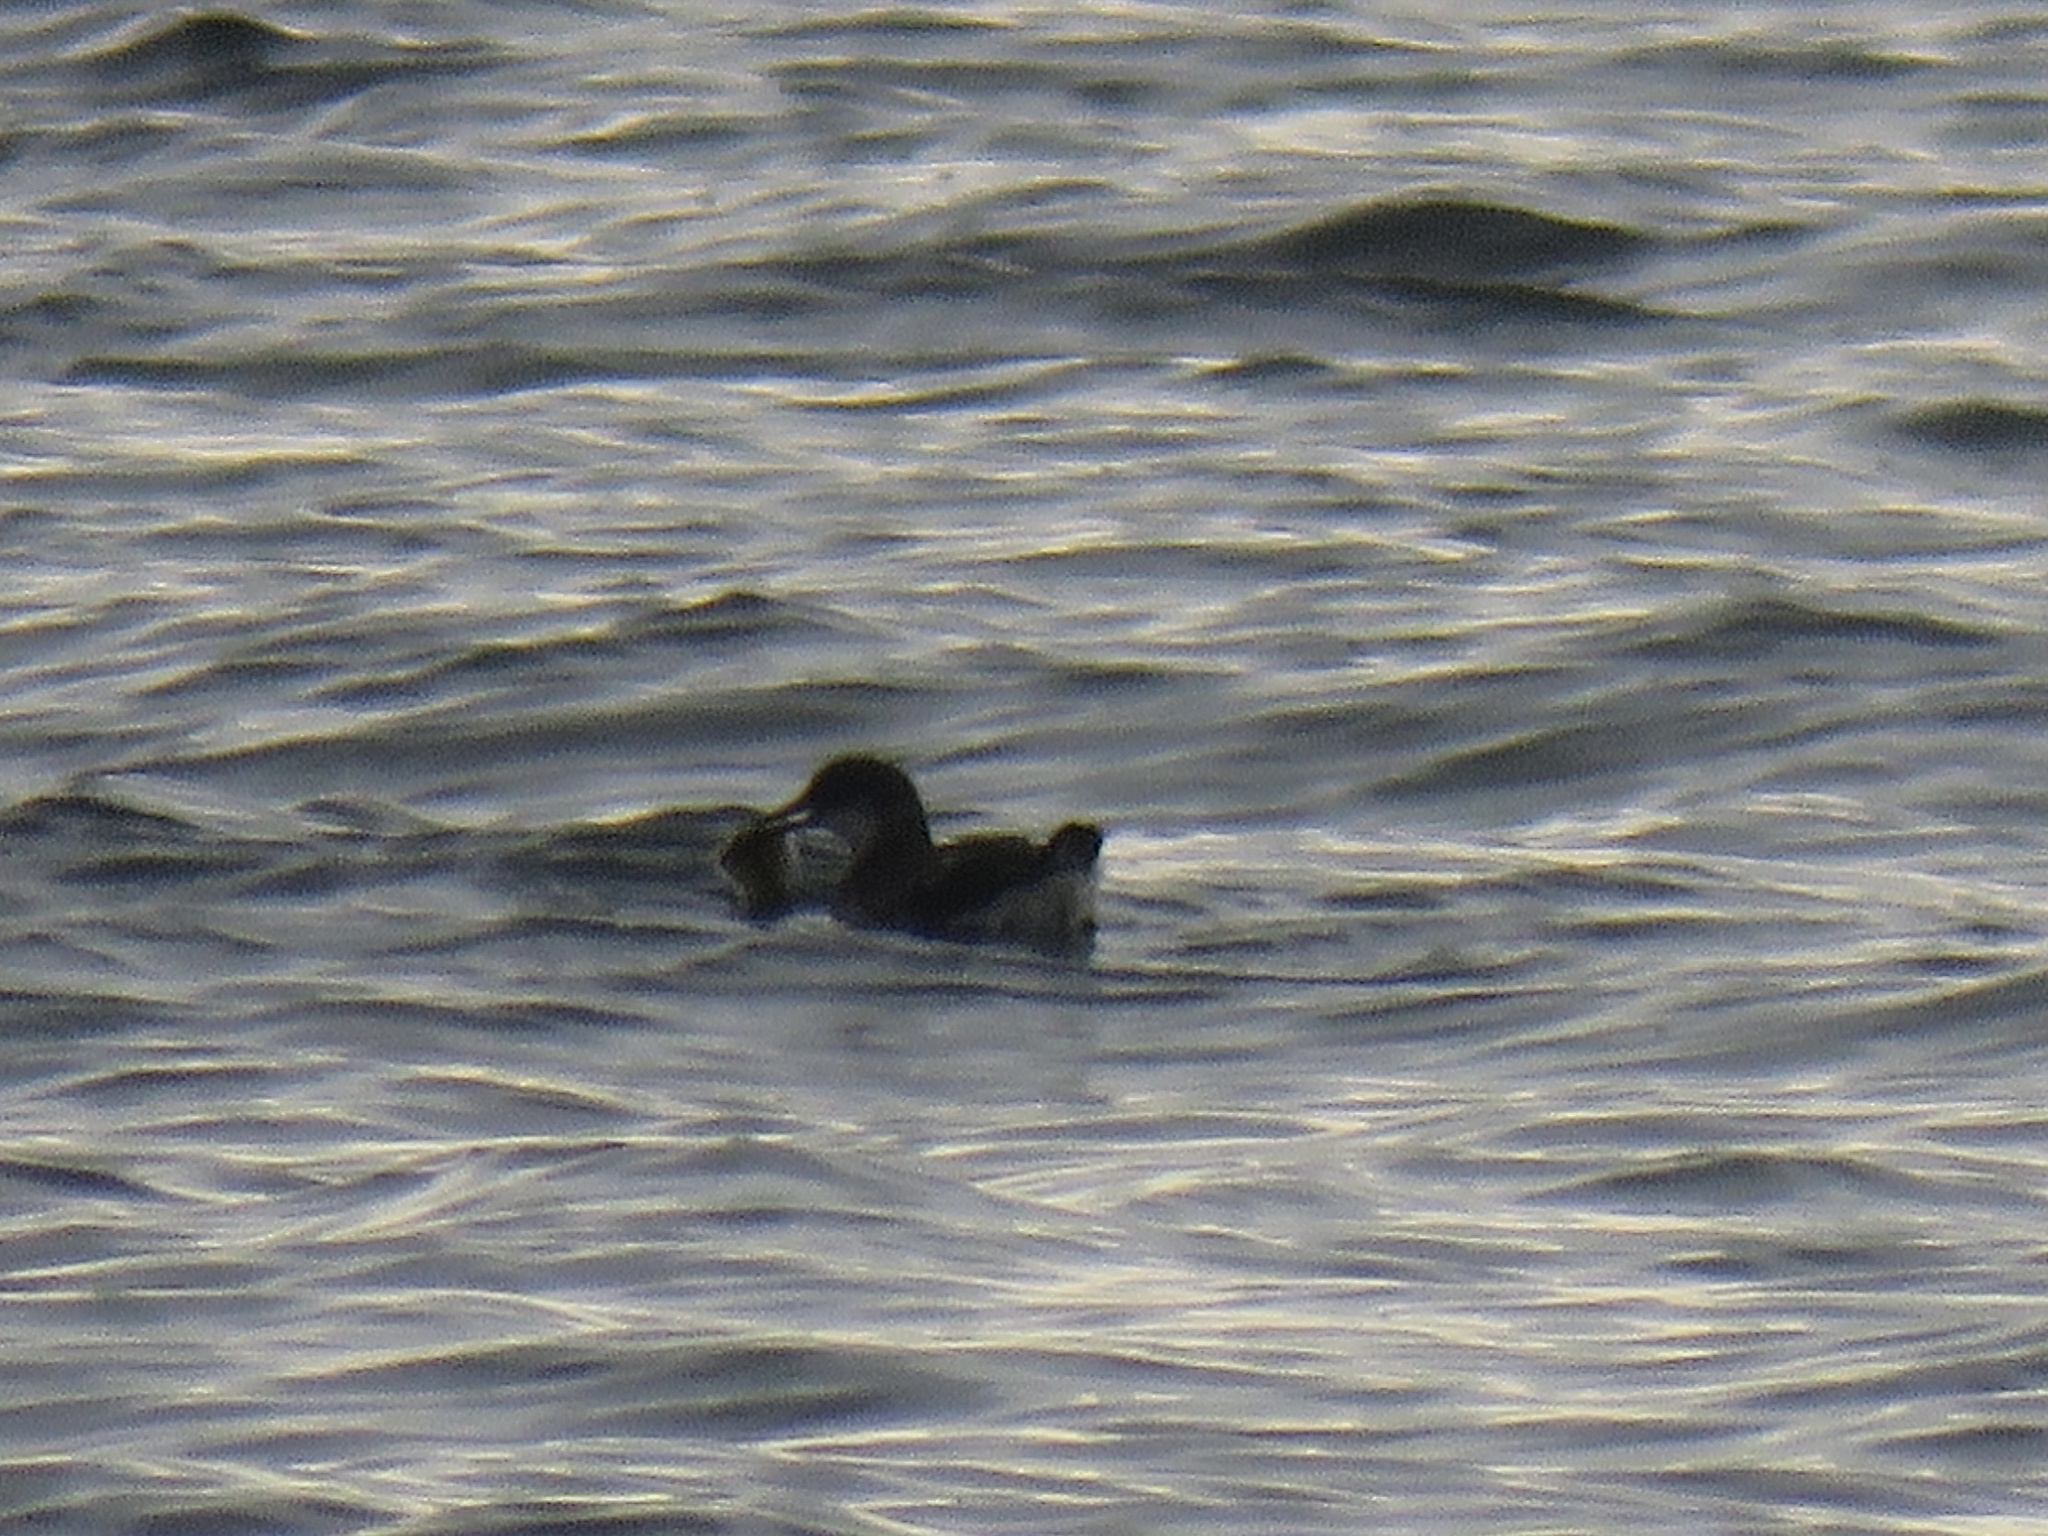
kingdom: Animalia
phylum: Chordata
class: Aves
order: Charadriiformes
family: Alcidae
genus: Cepphus
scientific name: Cepphus columba
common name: Pigeon guillemot
